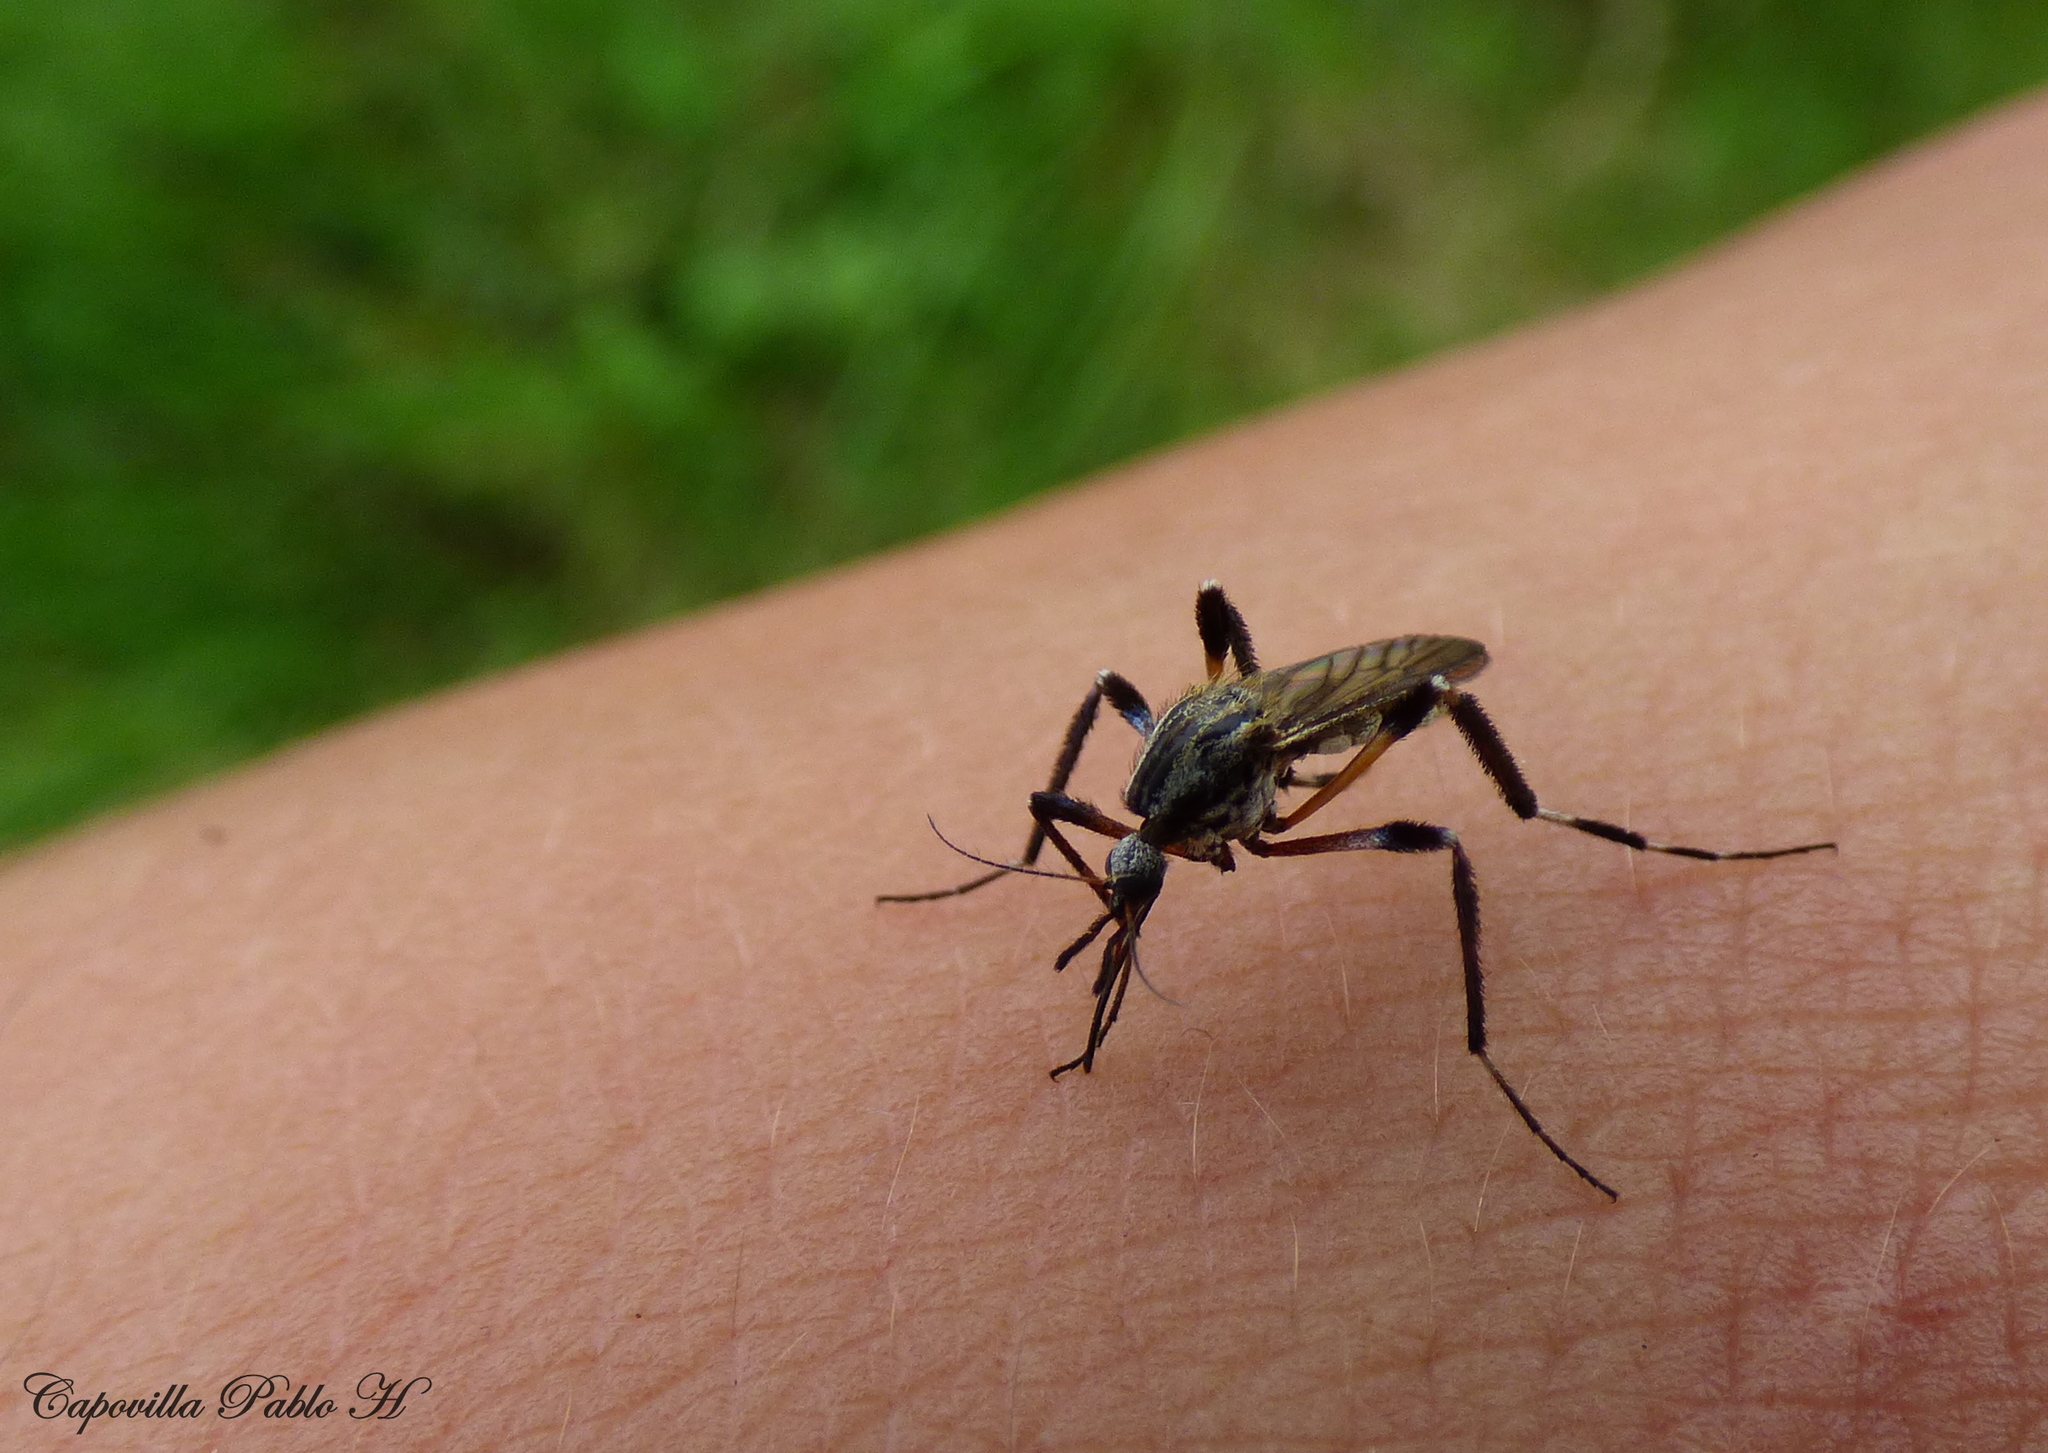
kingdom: Animalia
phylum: Arthropoda
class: Insecta
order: Diptera
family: Culicidae
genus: Psorophora
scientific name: Psorophora holmbergii
